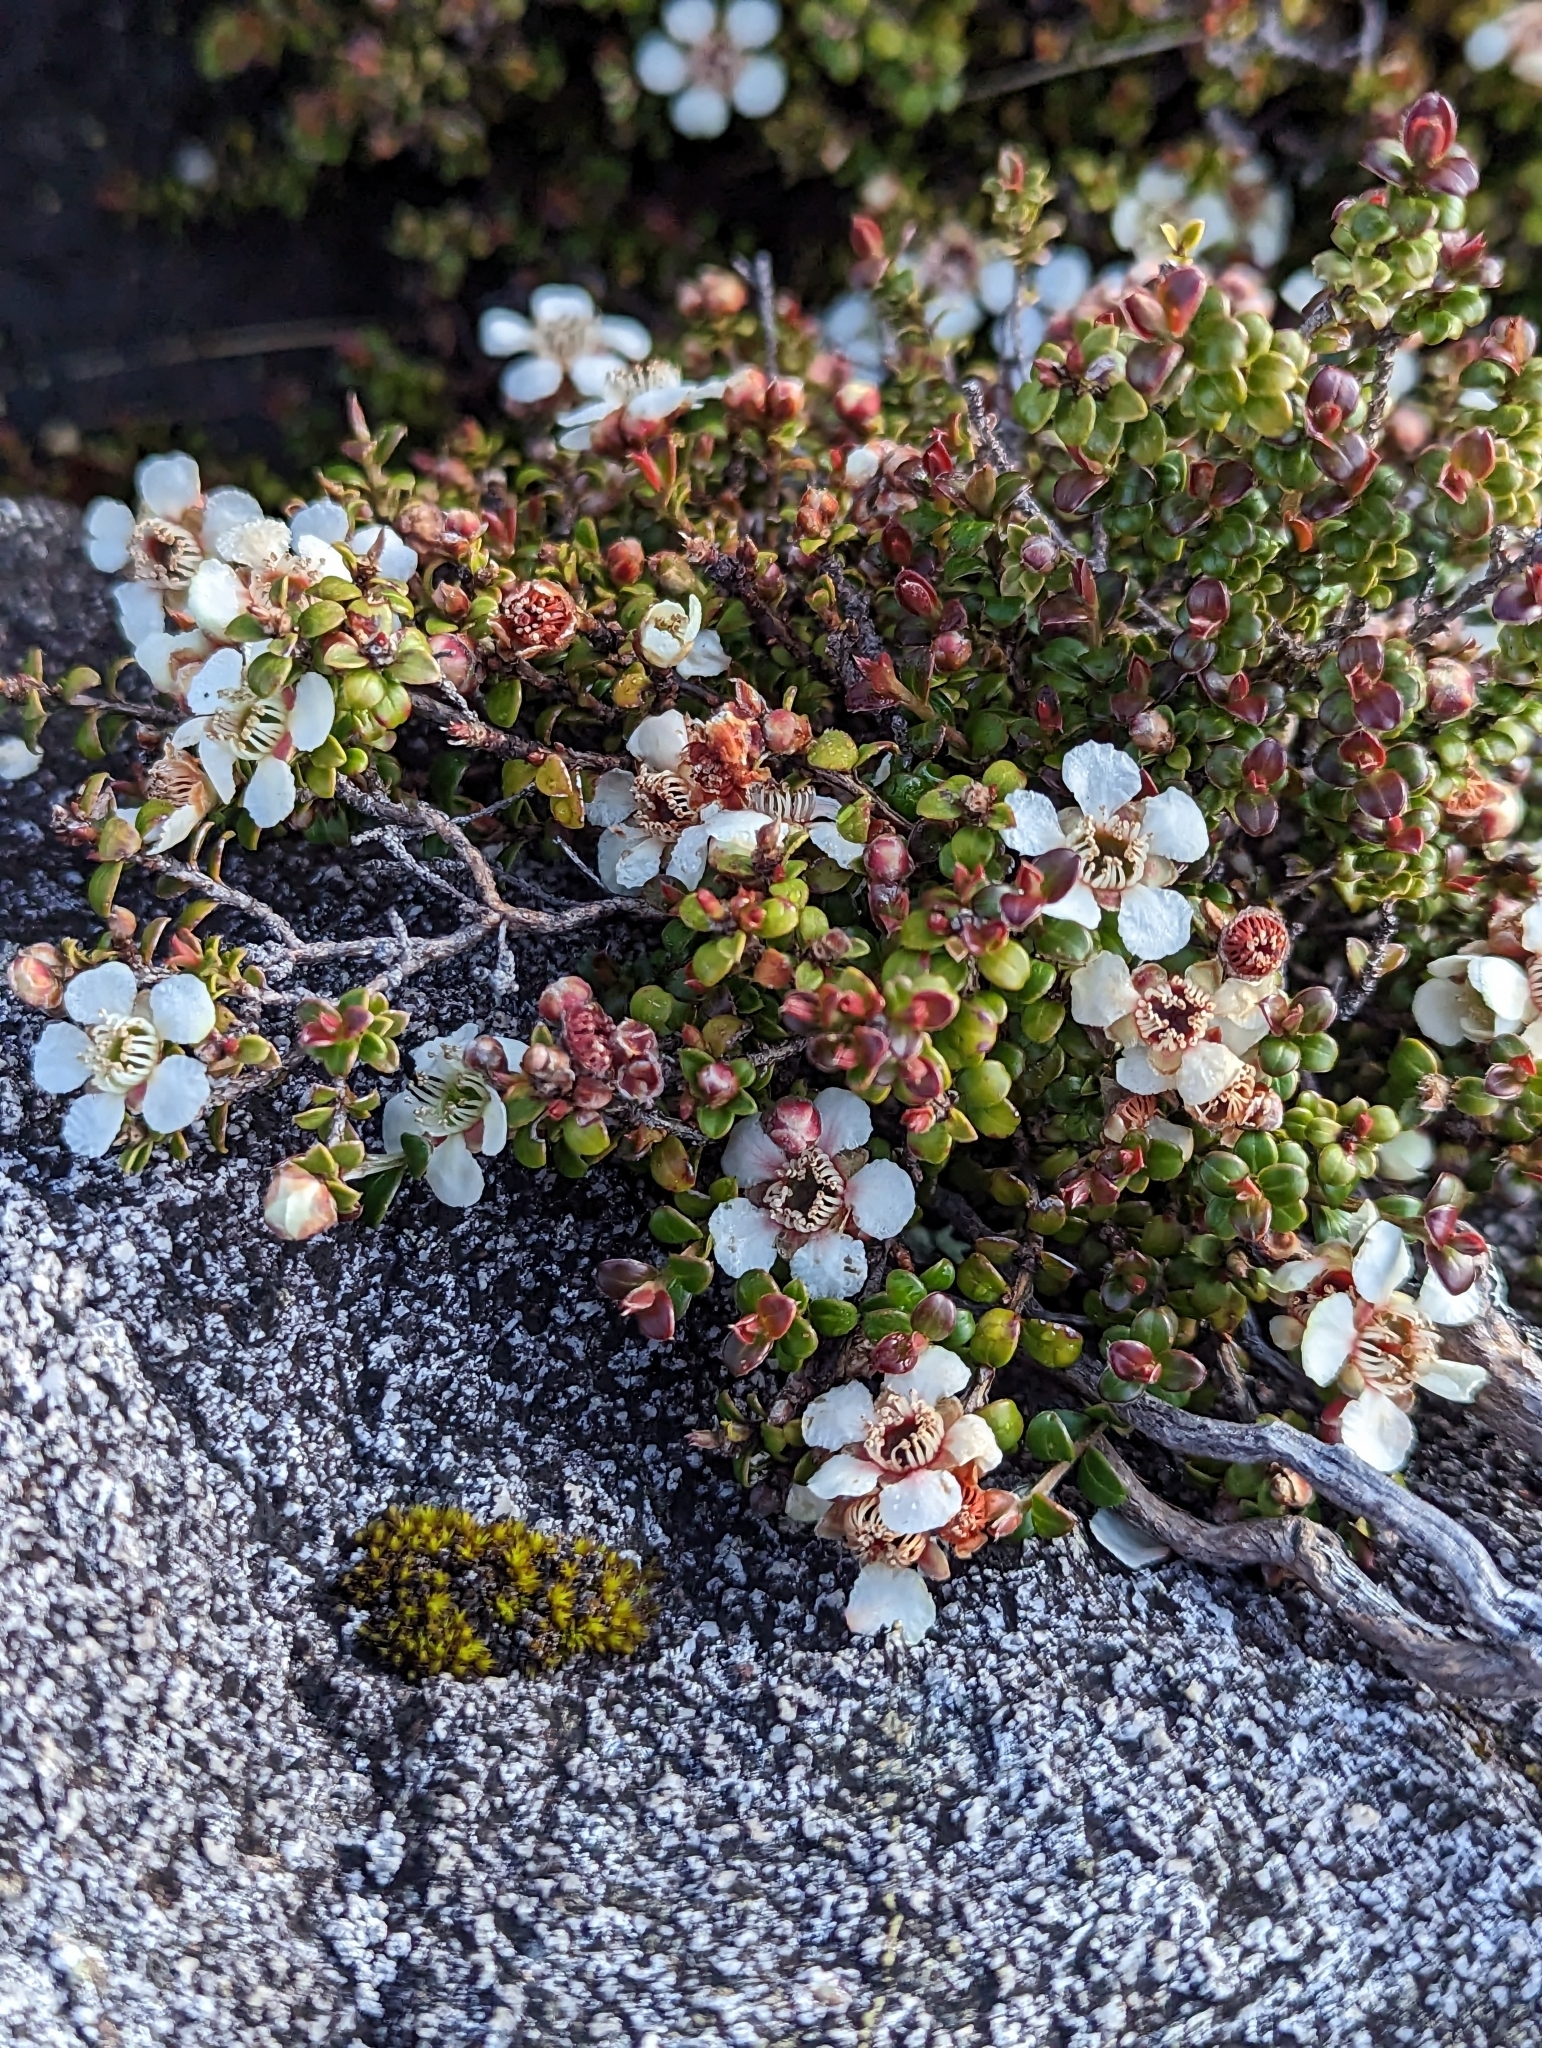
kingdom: Plantae
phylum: Tracheophyta
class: Magnoliopsida
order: Myrtales
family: Myrtaceae
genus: Leptospermum
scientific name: Leptospermum recurvum
